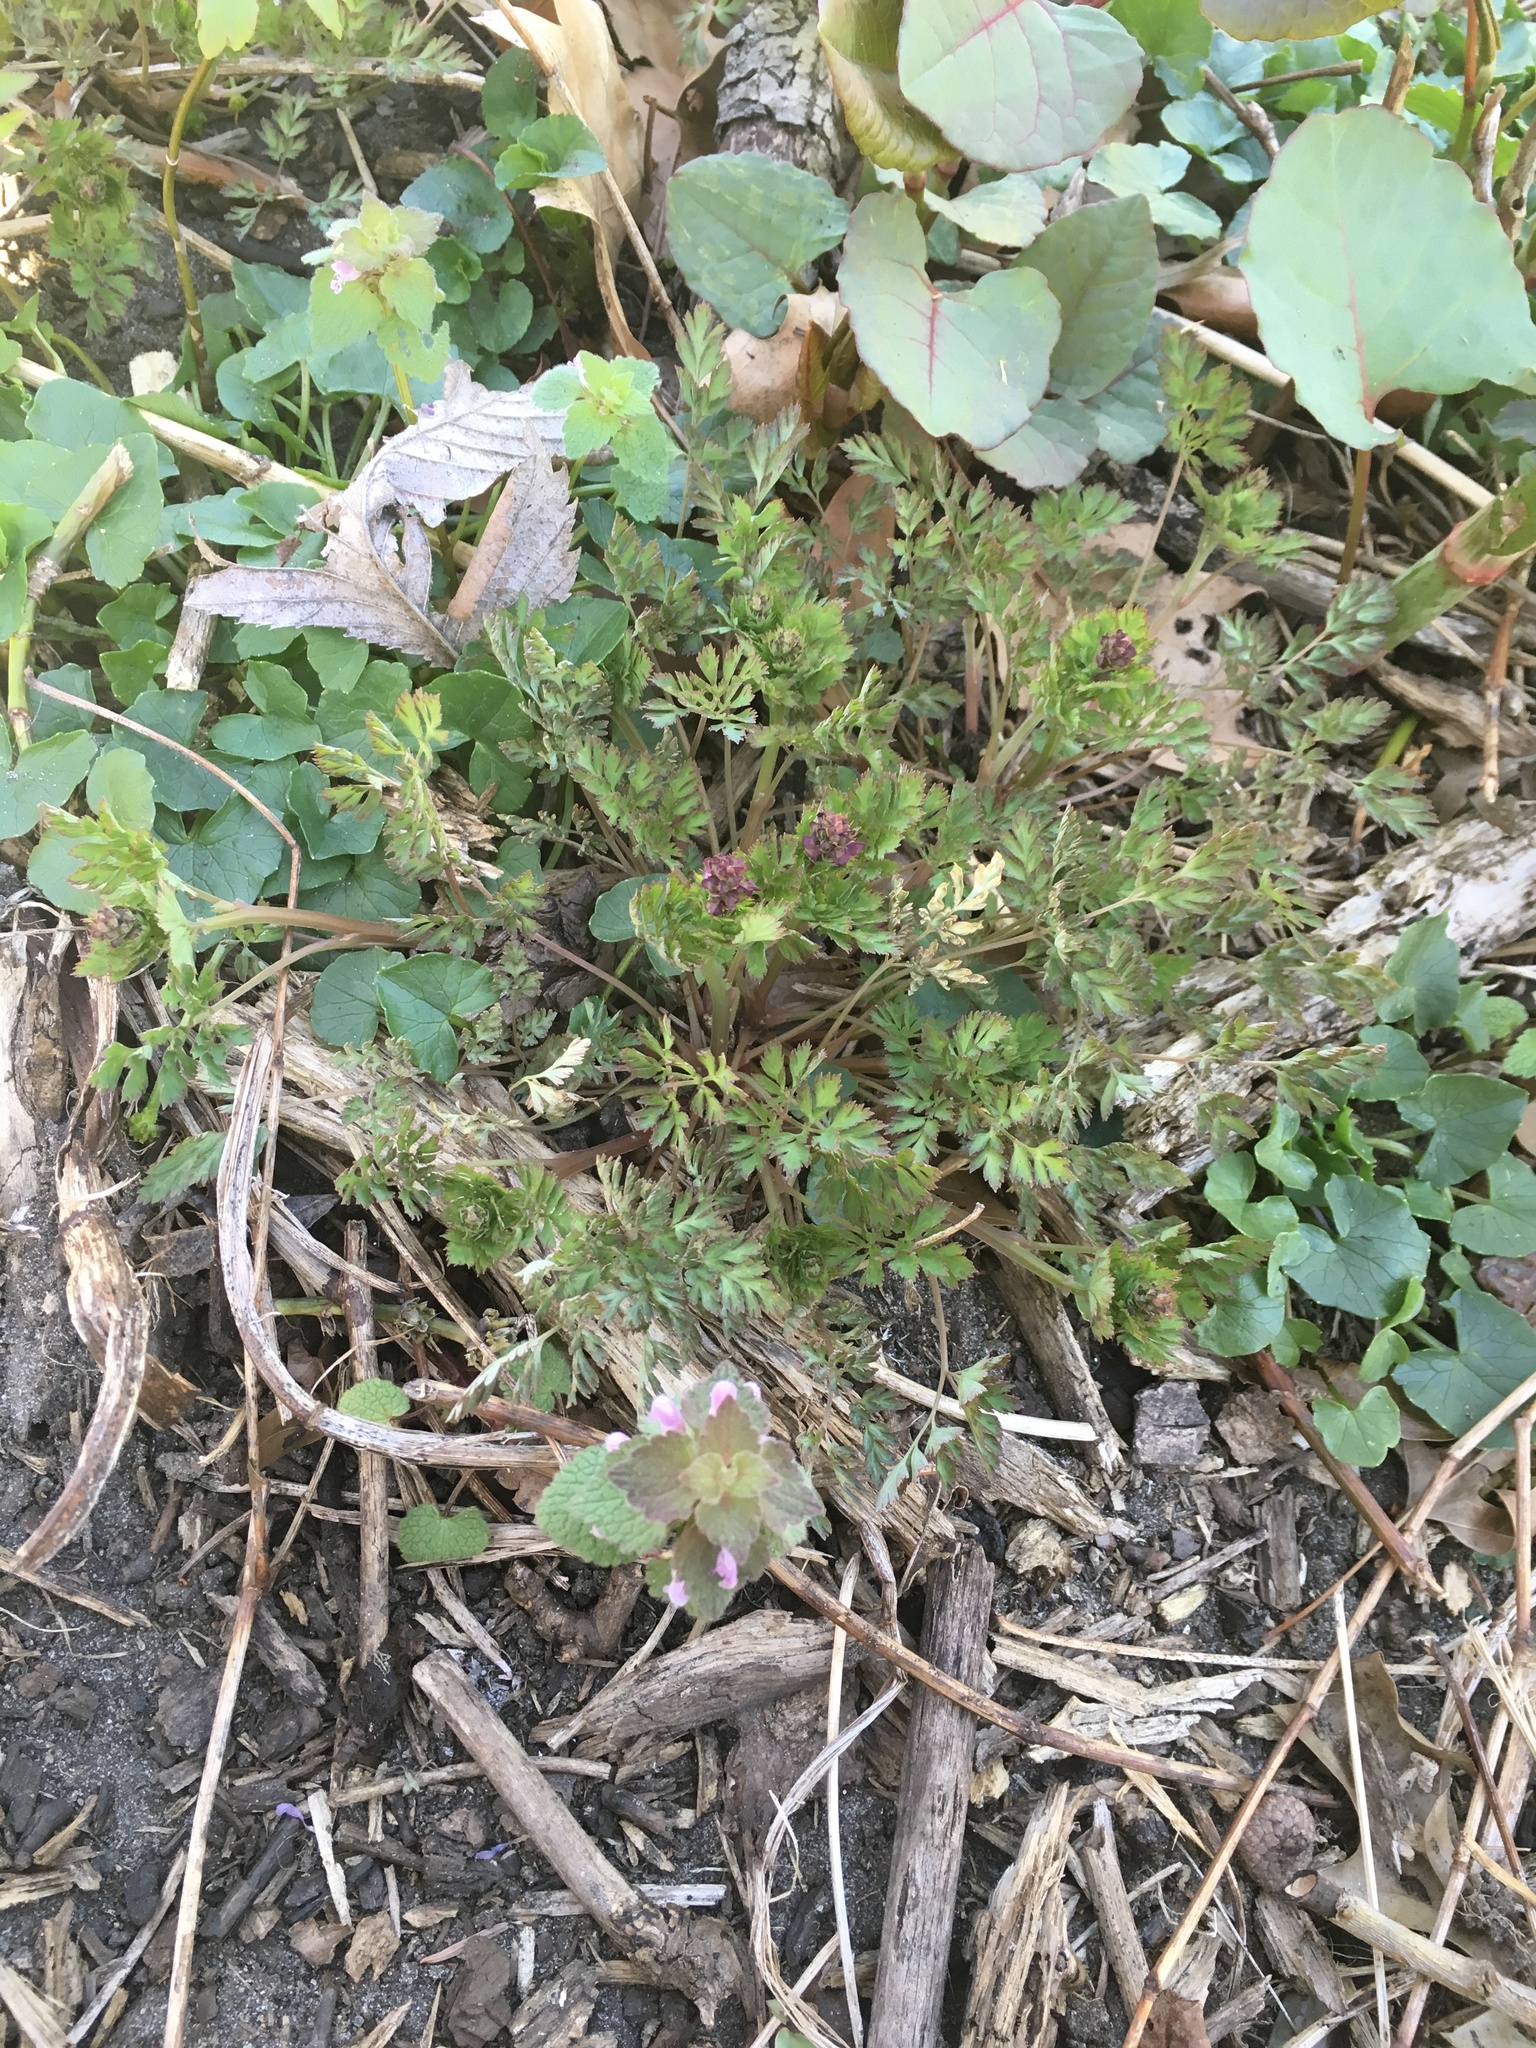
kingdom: Plantae
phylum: Tracheophyta
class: Magnoliopsida
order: Ranunculales
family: Papaveraceae
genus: Corydalis
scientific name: Corydalis incisa
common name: Incised fumewort
